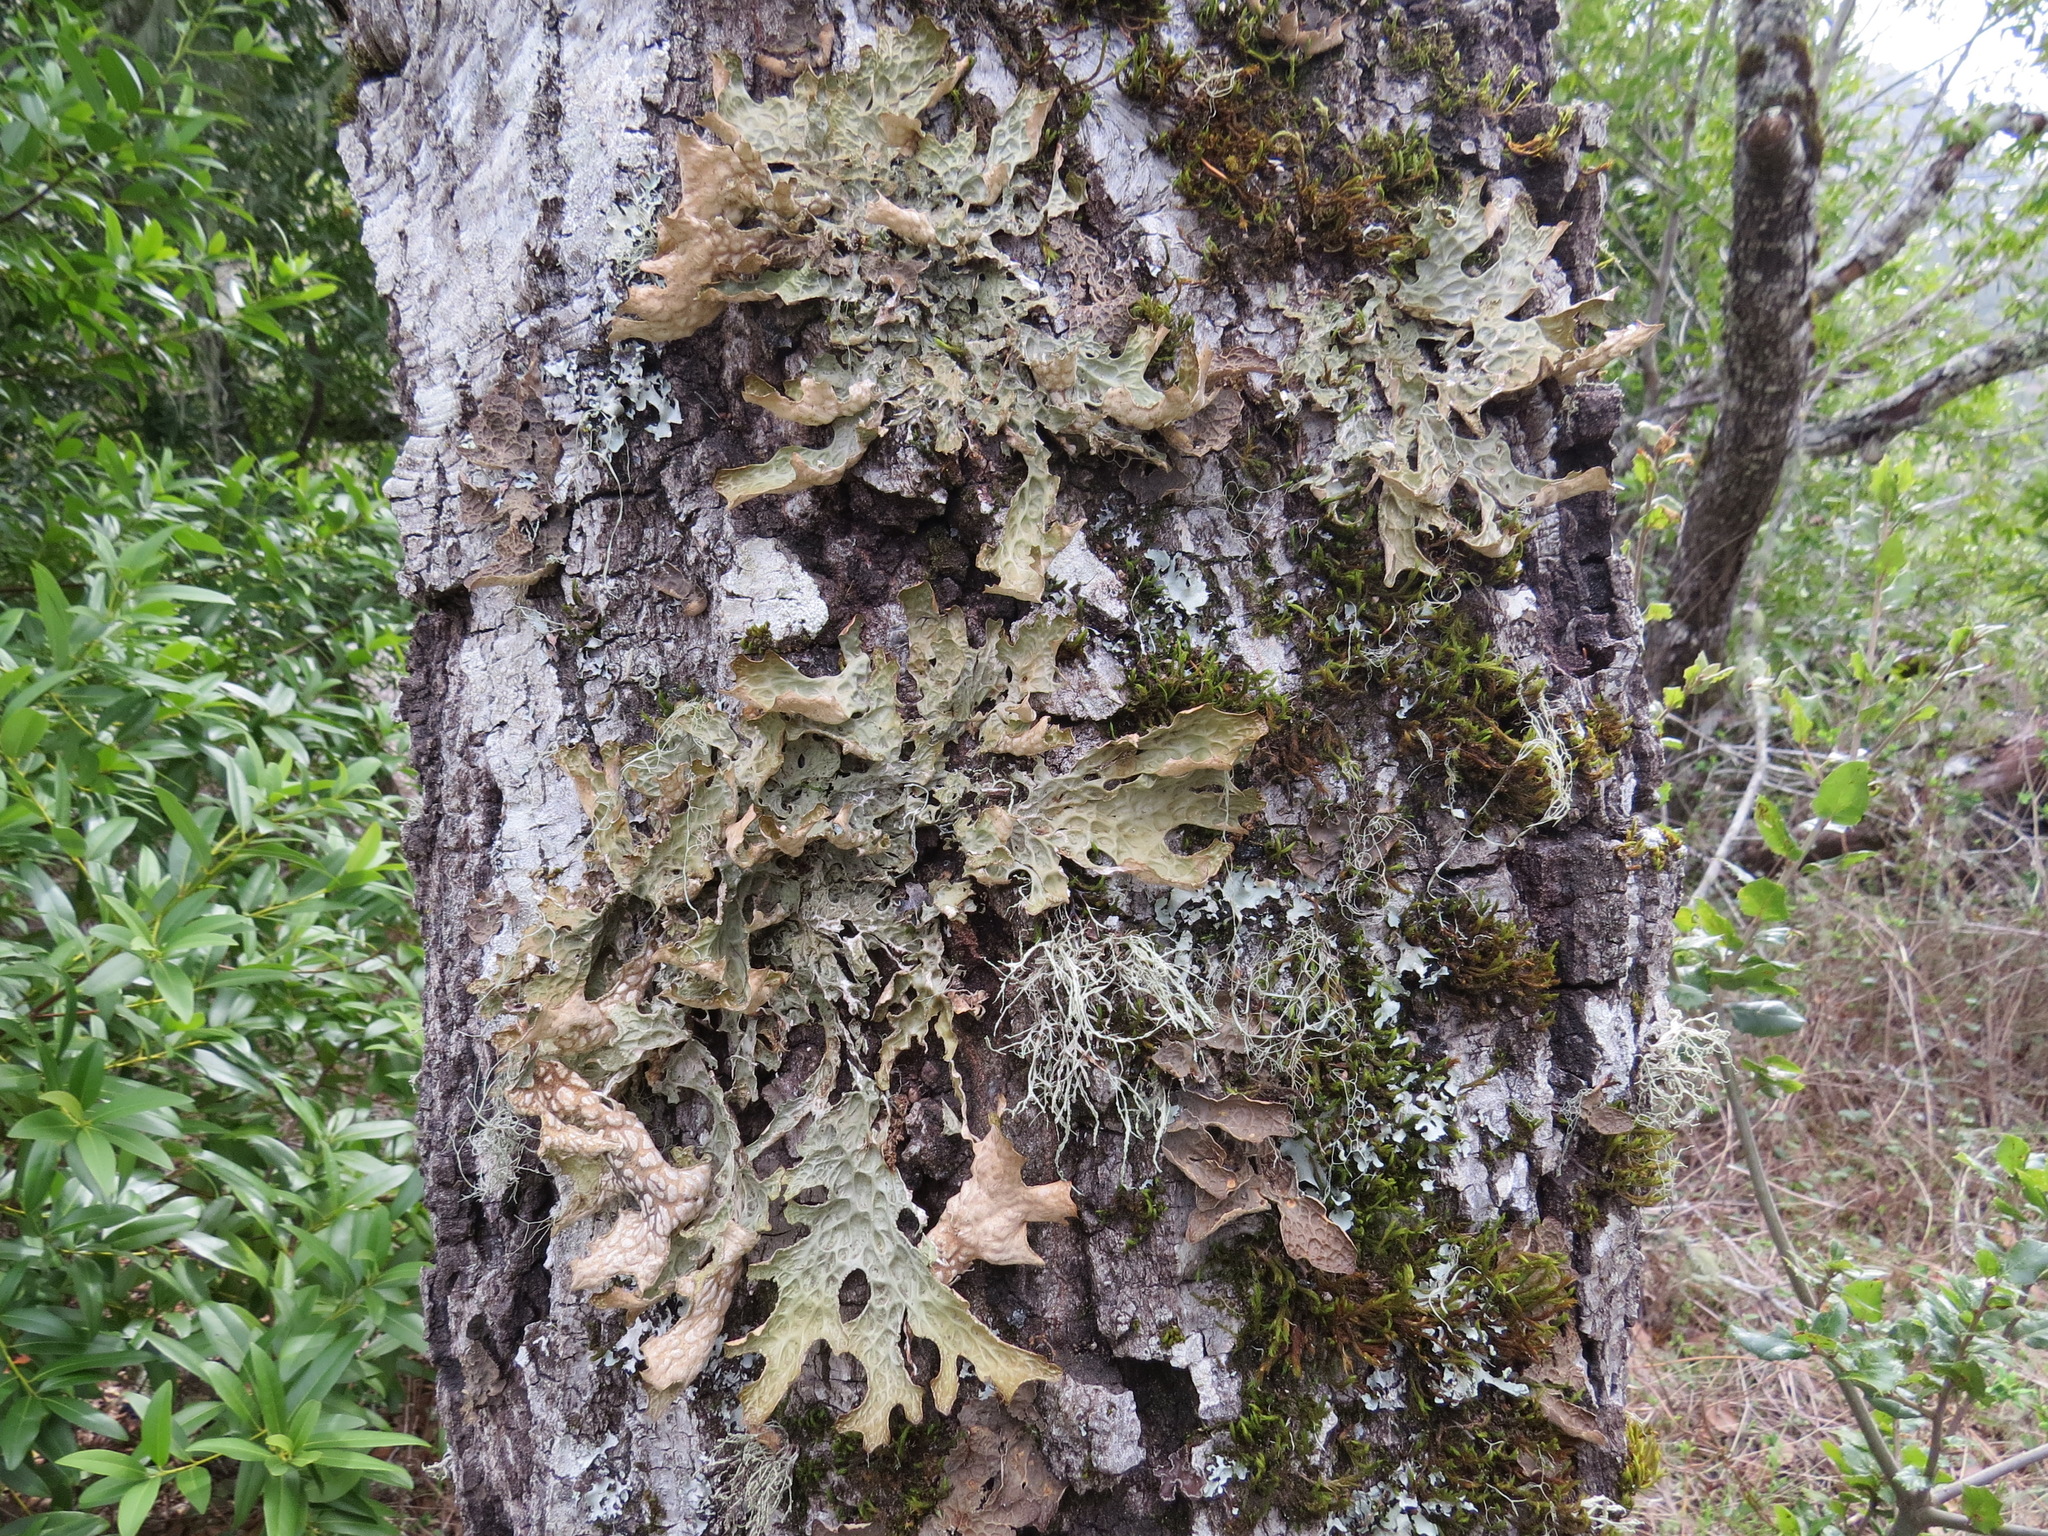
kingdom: Fungi
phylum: Ascomycota
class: Lecanoromycetes
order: Peltigerales
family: Lobariaceae
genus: Lobaria
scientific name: Lobaria pulmonaria
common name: Lungwort
